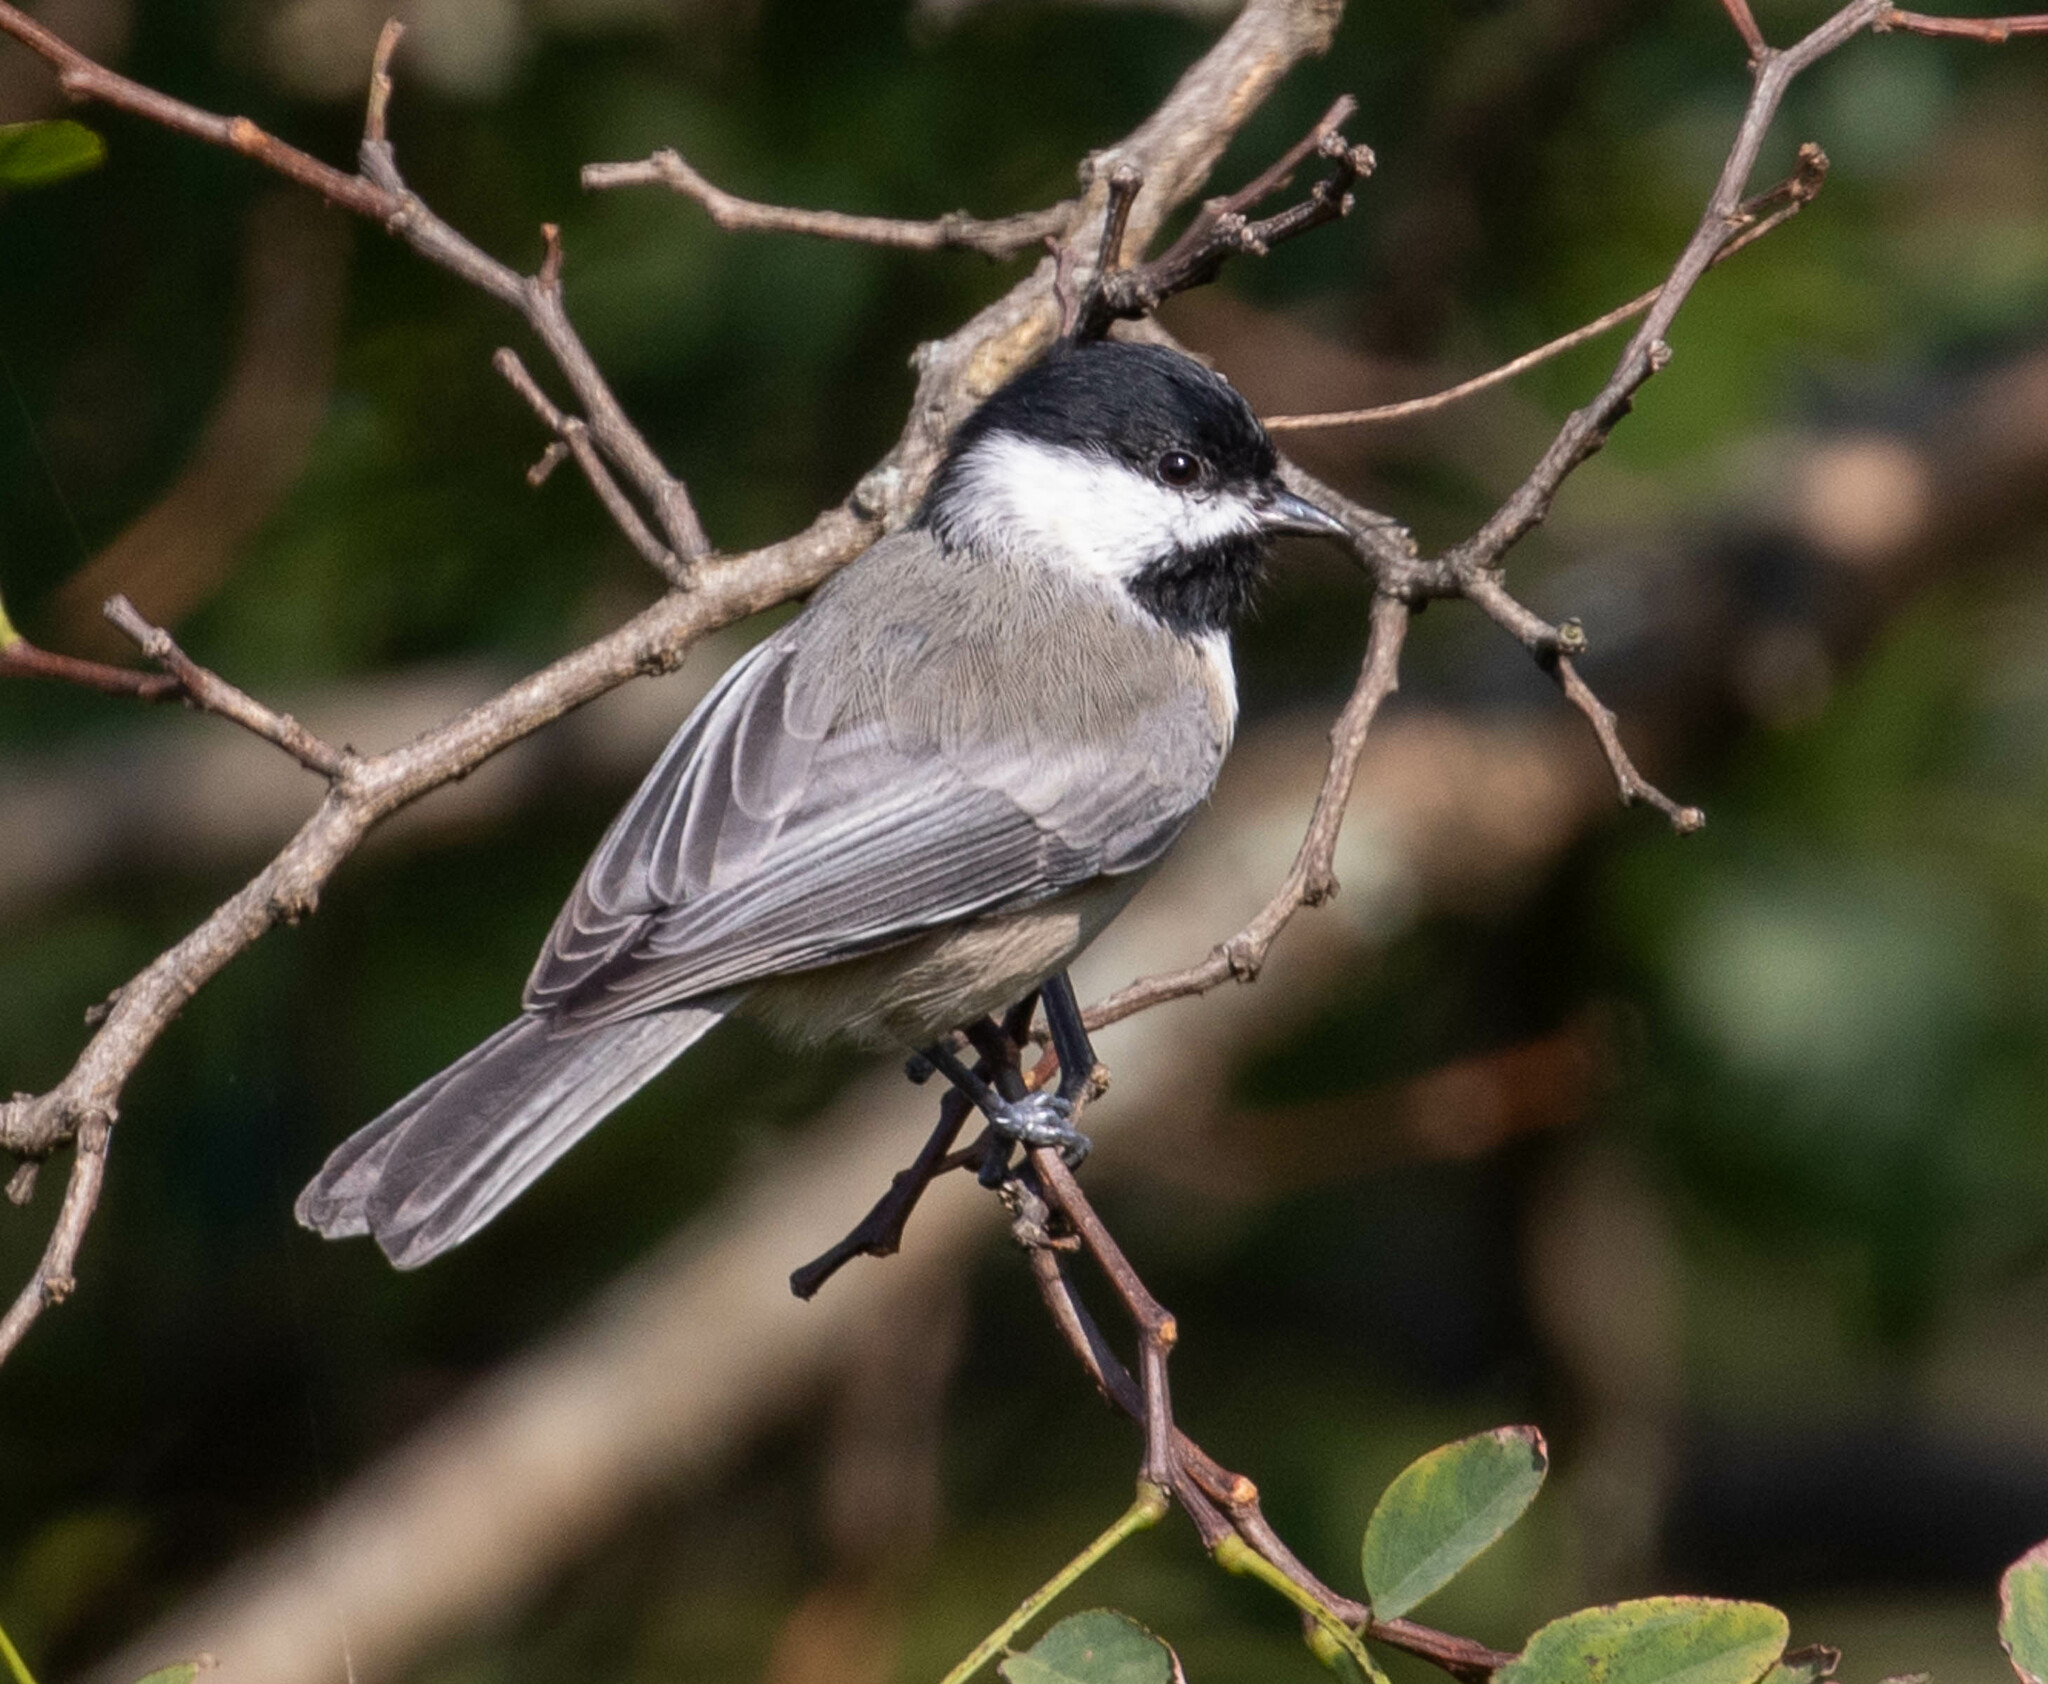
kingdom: Animalia
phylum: Chordata
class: Aves
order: Passeriformes
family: Paridae
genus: Poecile
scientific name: Poecile carolinensis
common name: Carolina chickadee
